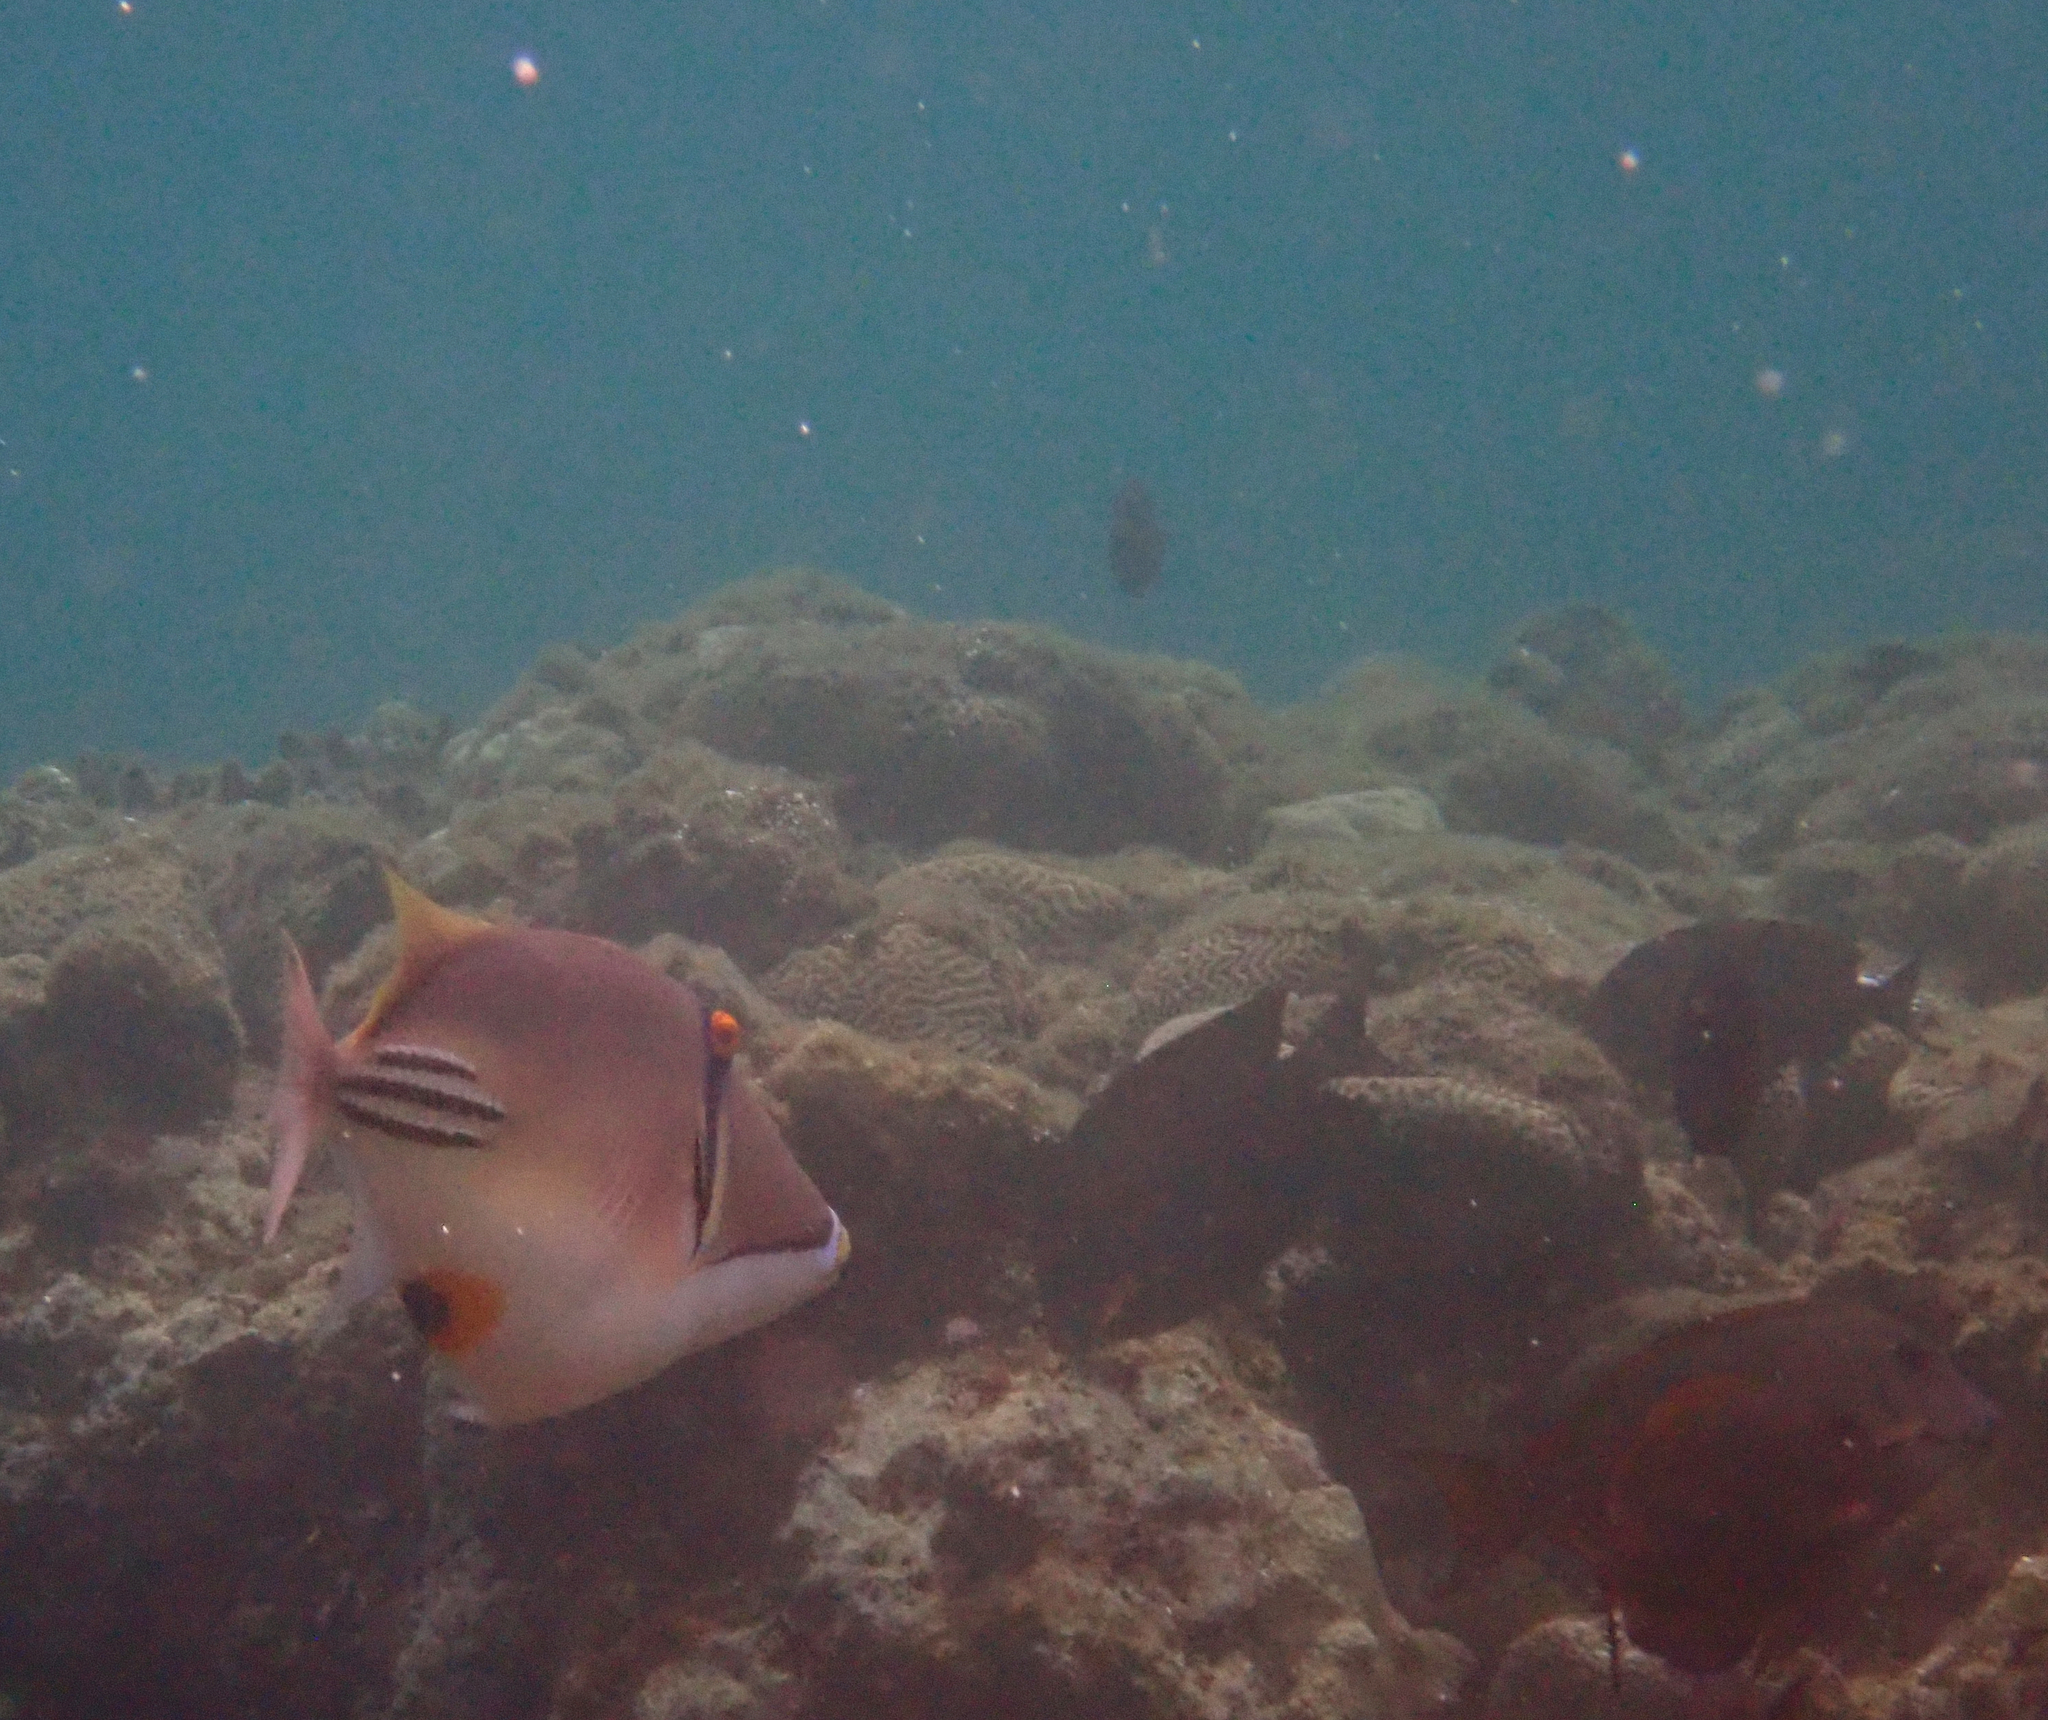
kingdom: Animalia
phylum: Chordata
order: Tetraodontiformes
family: Balistidae
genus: Rhinecanthus
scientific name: Rhinecanthus assasi
